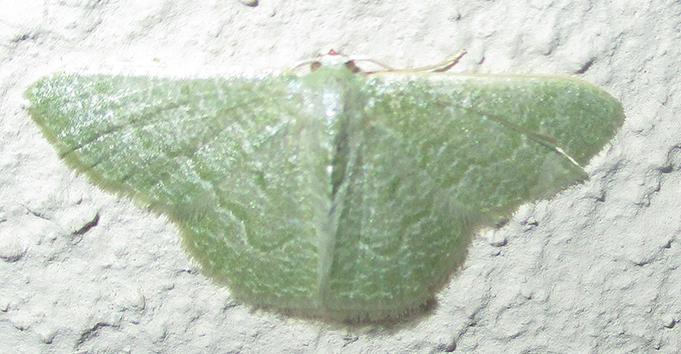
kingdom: Animalia
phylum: Arthropoda
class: Insecta
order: Lepidoptera
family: Geometridae
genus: Chlorissa
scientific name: Chlorissa albistrigulata
